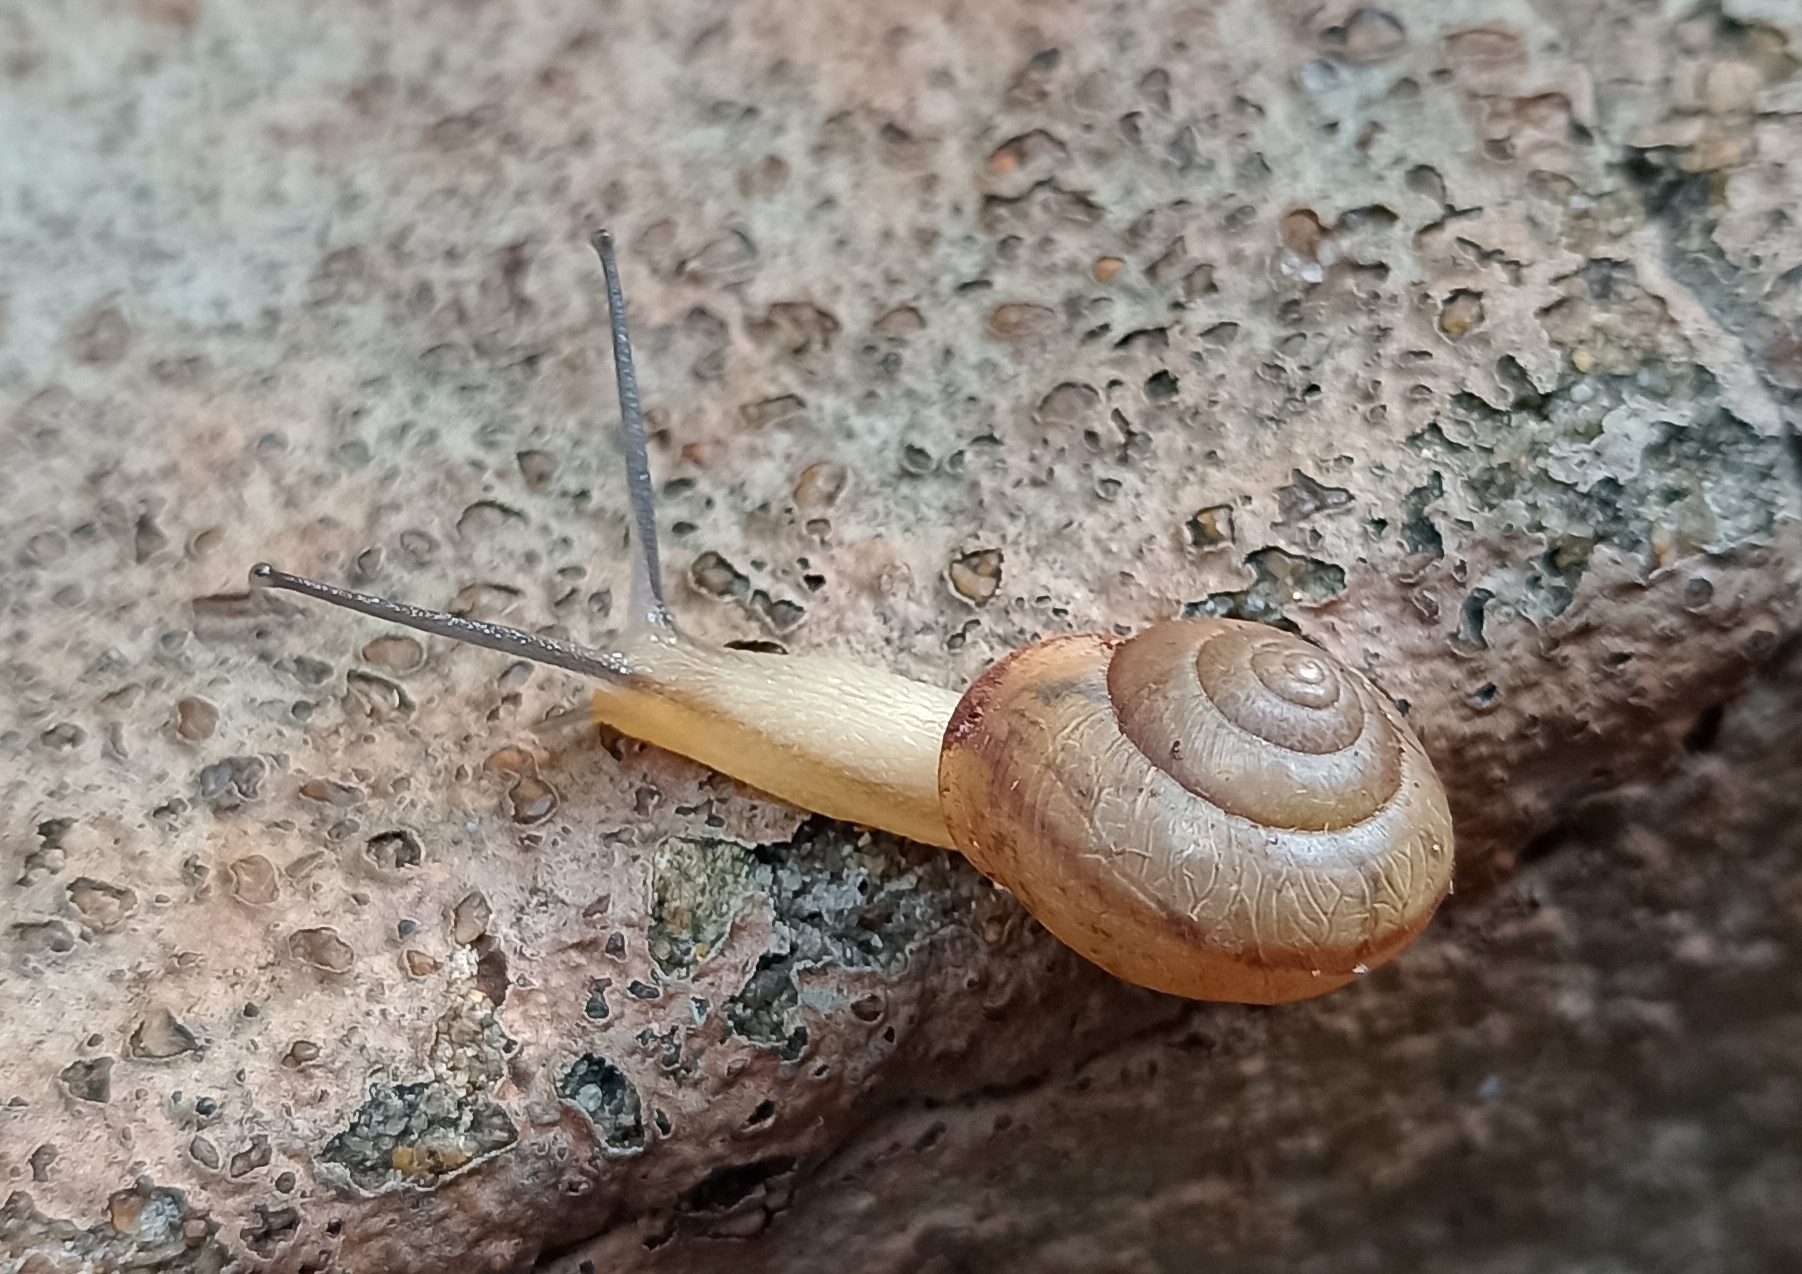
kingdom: Animalia
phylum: Mollusca
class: Gastropoda
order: Stylommatophora
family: Camaenidae
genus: Bradybaena
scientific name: Bradybaena similaris
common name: Asian trampsnail
